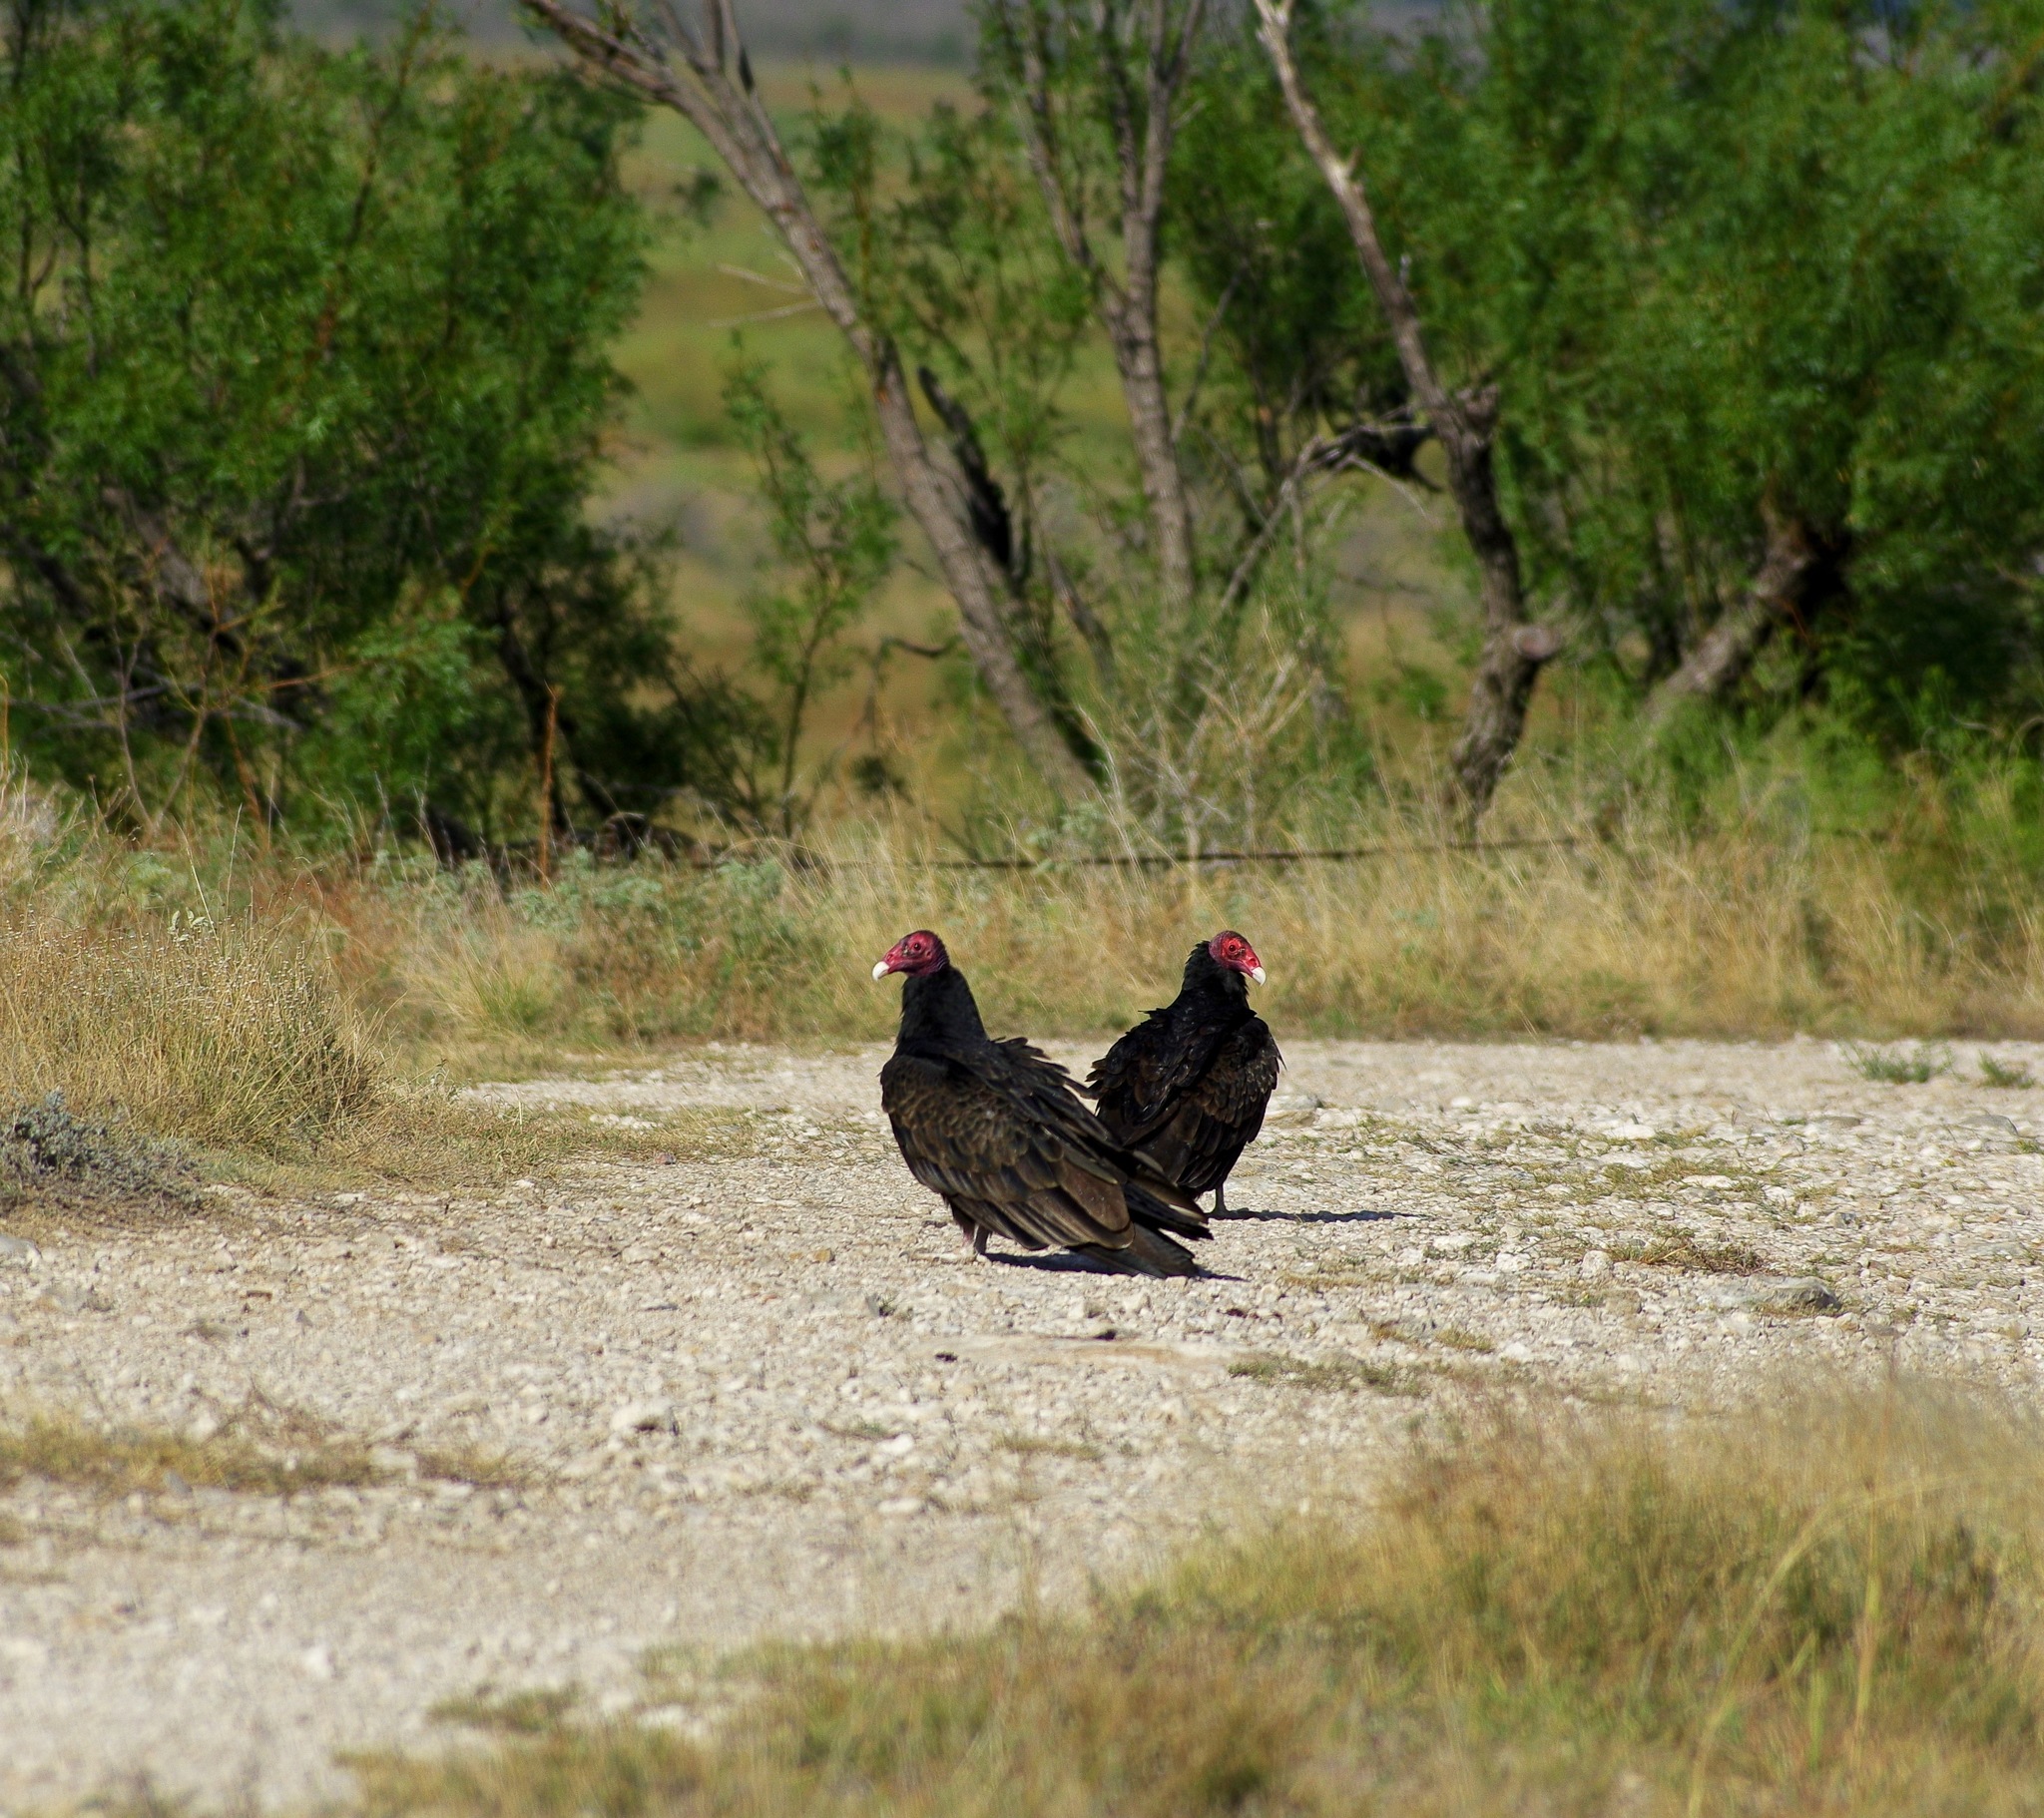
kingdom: Animalia
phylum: Chordata
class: Aves
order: Accipitriformes
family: Cathartidae
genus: Cathartes
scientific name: Cathartes aura
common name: Turkey vulture
